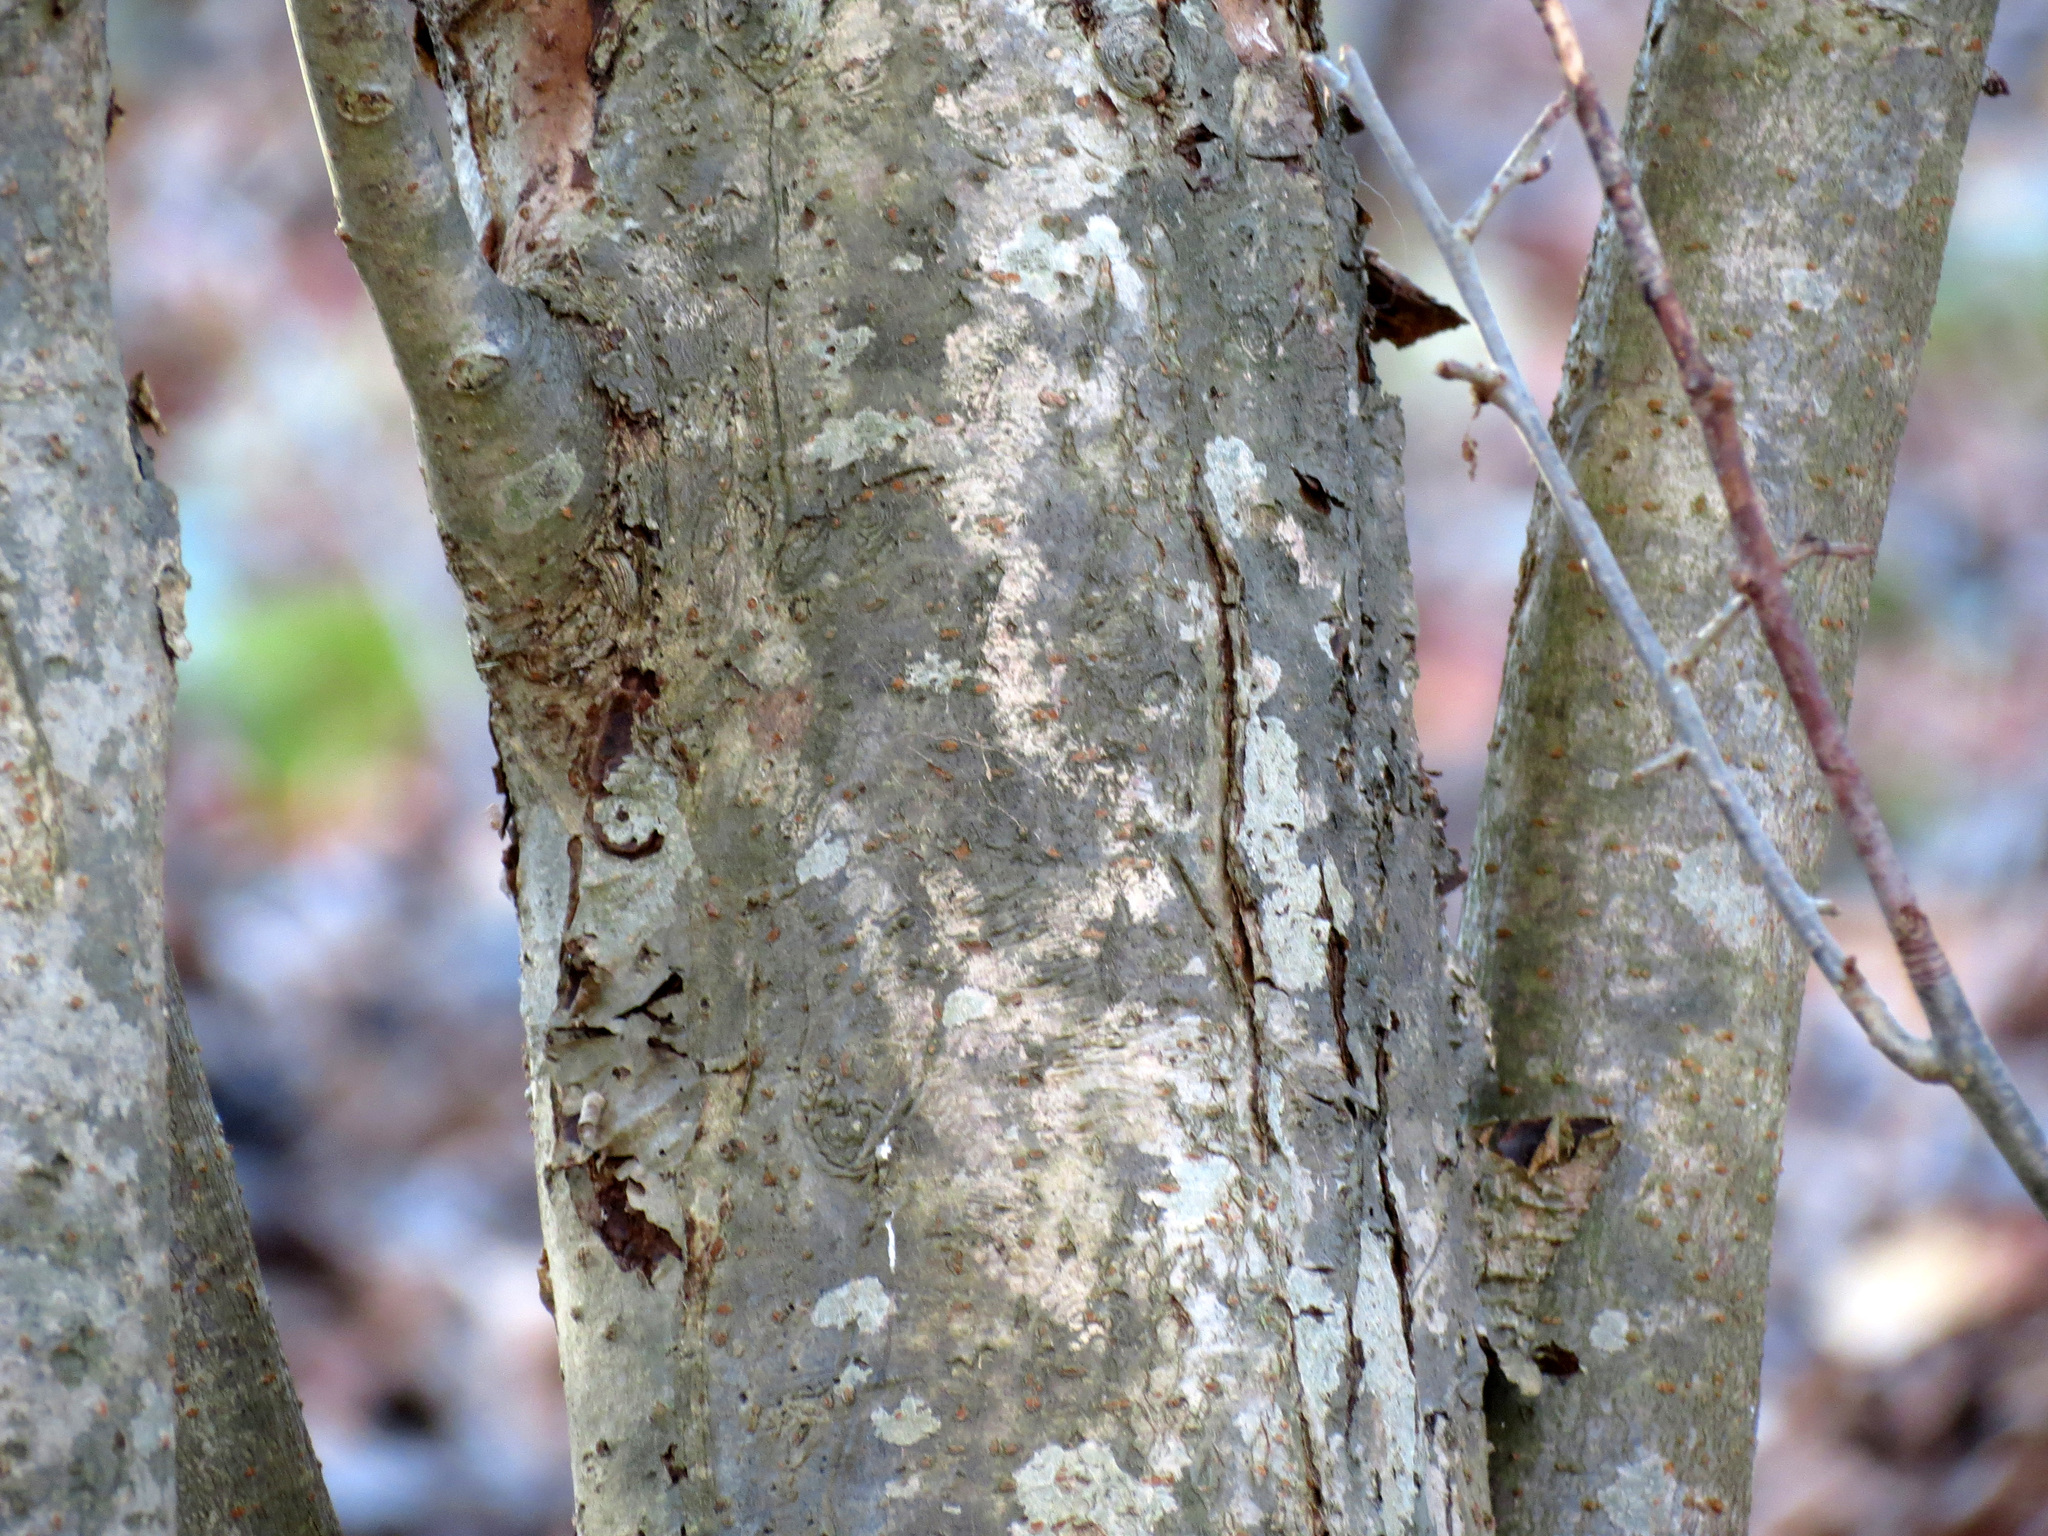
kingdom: Plantae
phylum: Tracheophyta
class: Magnoliopsida
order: Rosales
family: Rosaceae
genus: Malus
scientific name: Malus baccata
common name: Siberian crab
